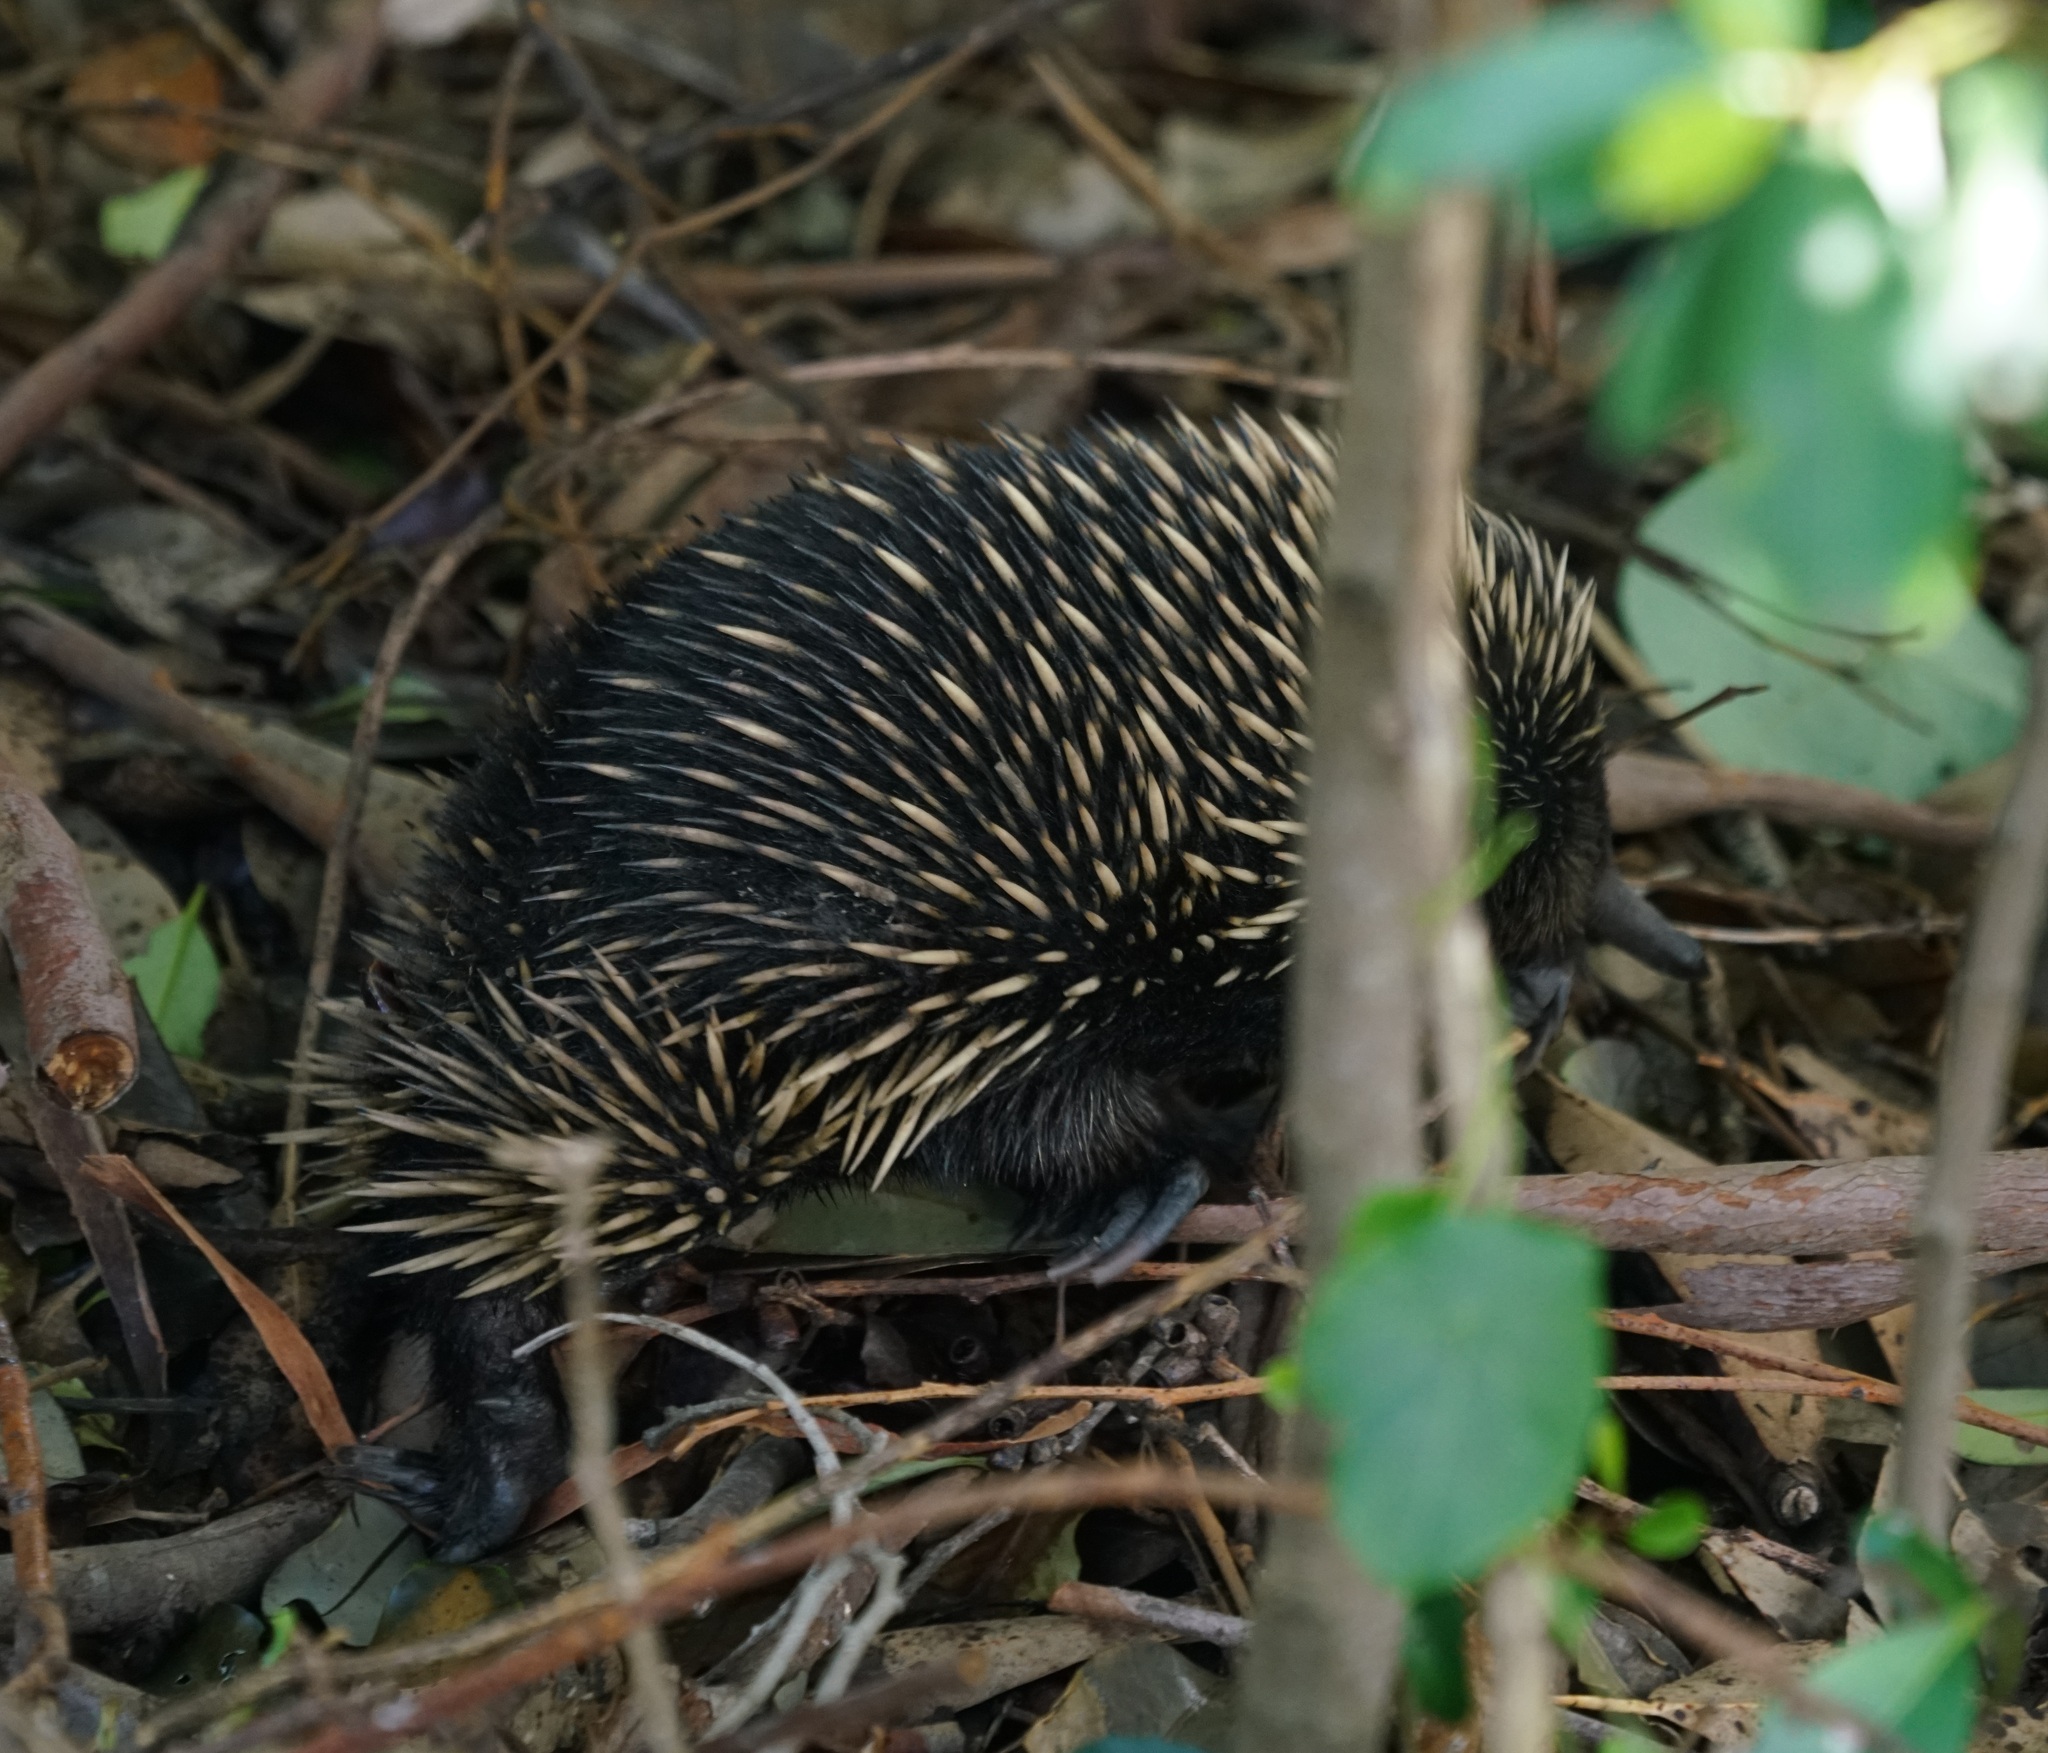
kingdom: Animalia
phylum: Chordata
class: Mammalia
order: Monotremata
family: Tachyglossidae
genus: Tachyglossus
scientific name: Tachyglossus aculeatus
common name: Short-beaked echidna
